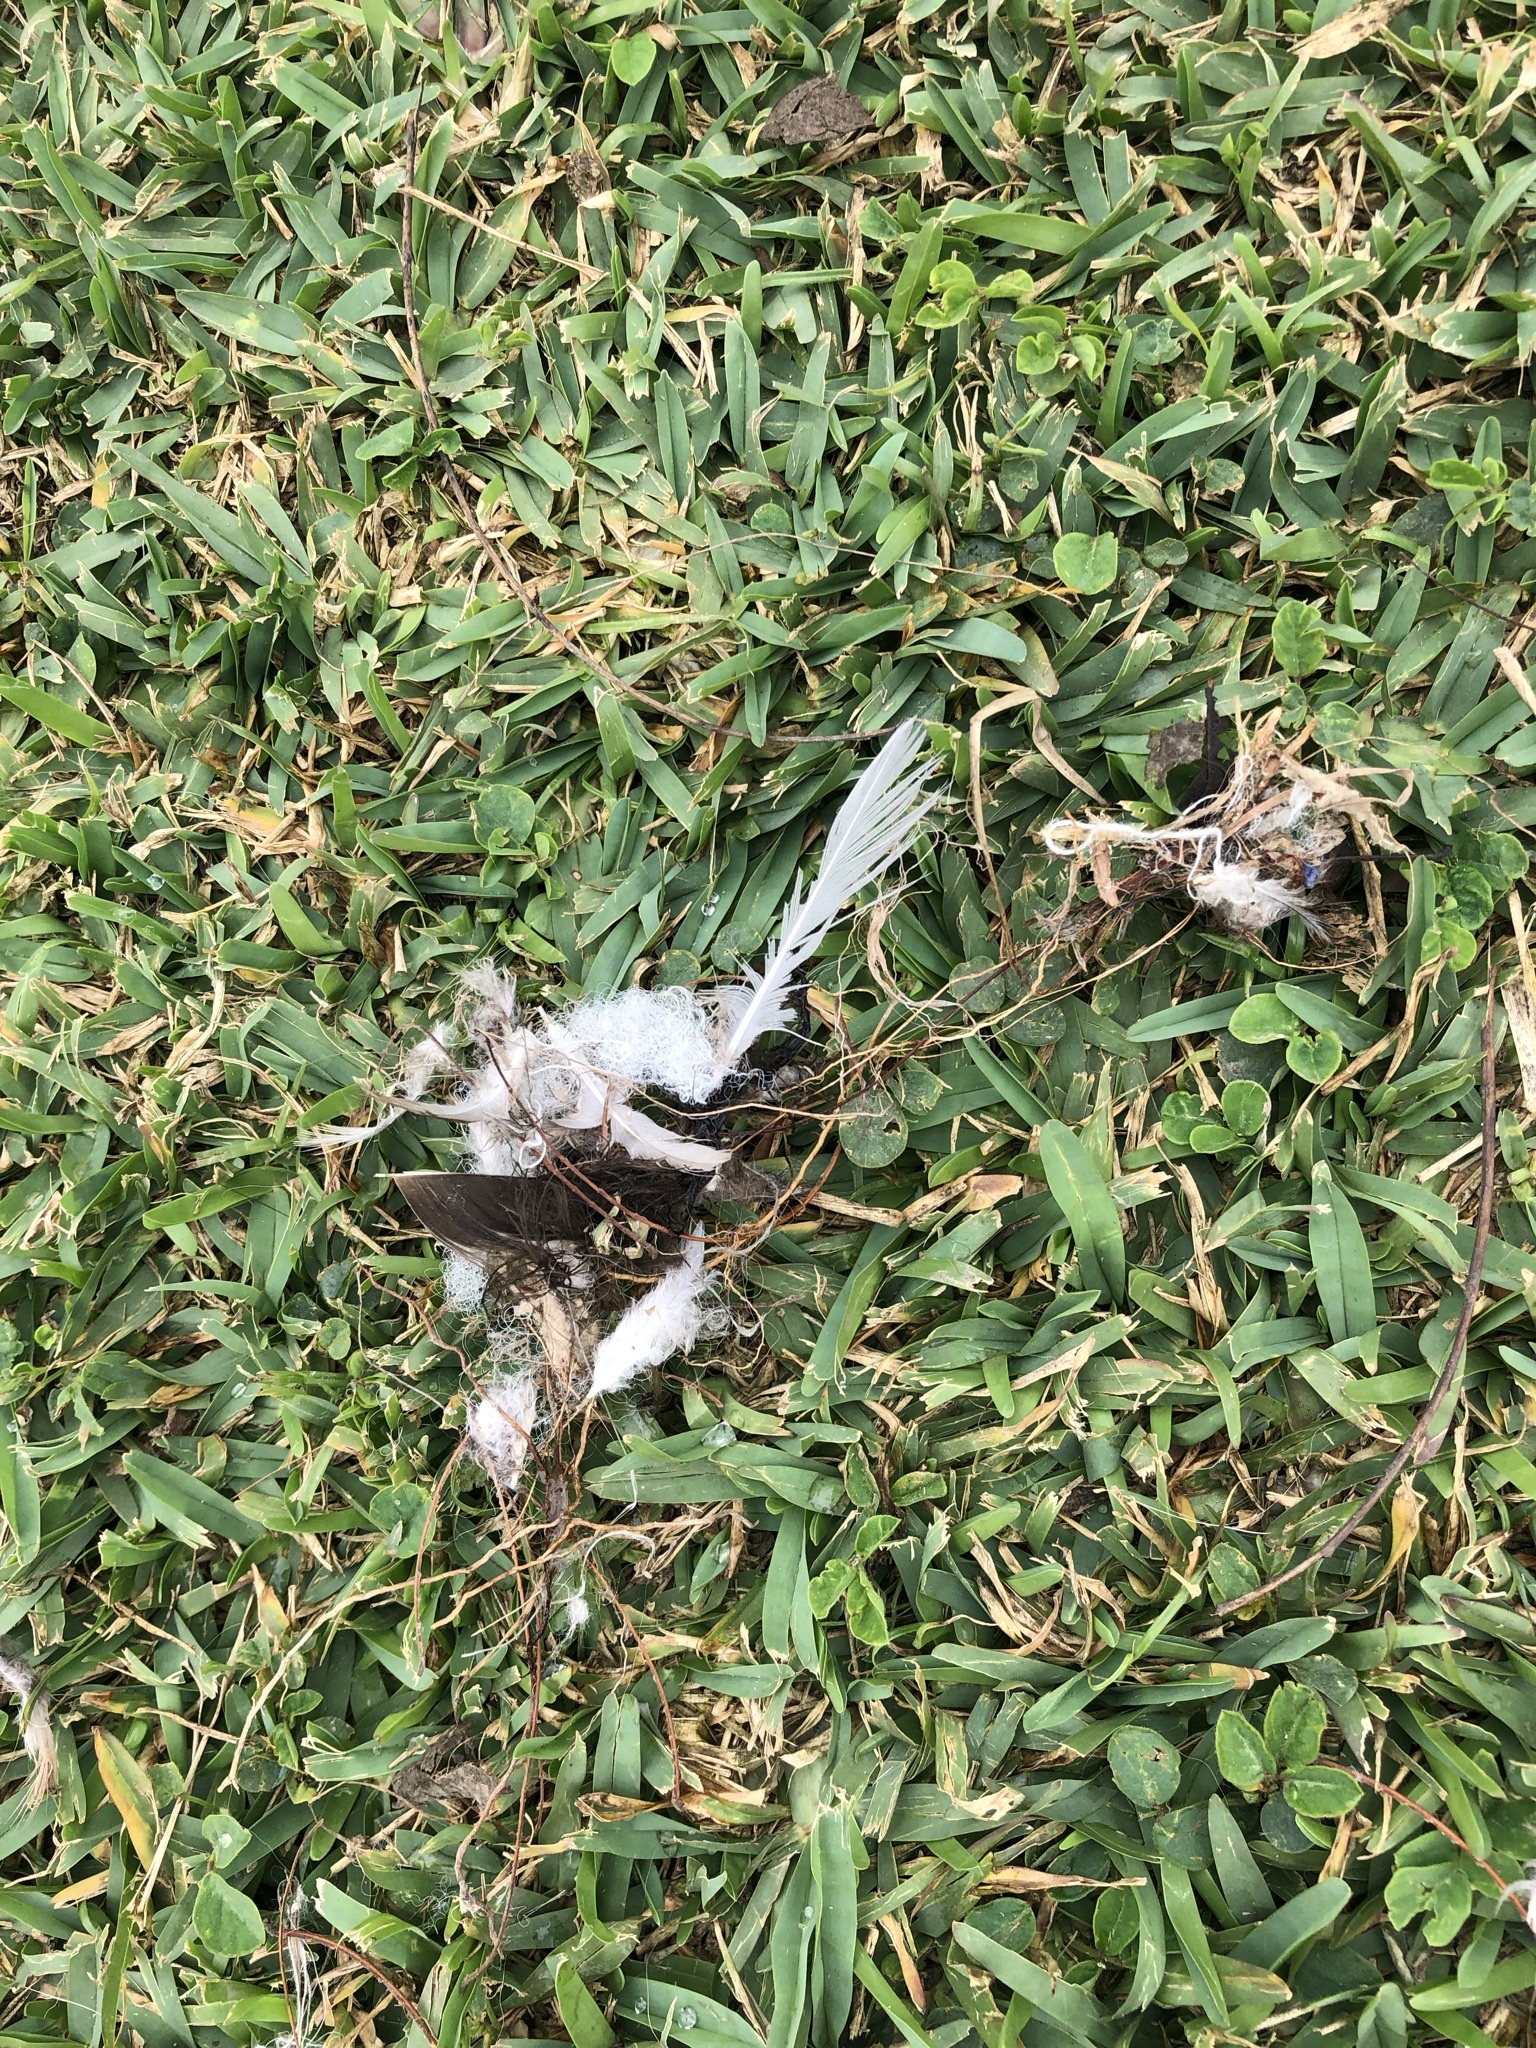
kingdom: Animalia
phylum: Chordata
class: Aves
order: Columbiformes
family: Columbidae
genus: Columba
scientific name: Columba livia
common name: Rock pigeon
